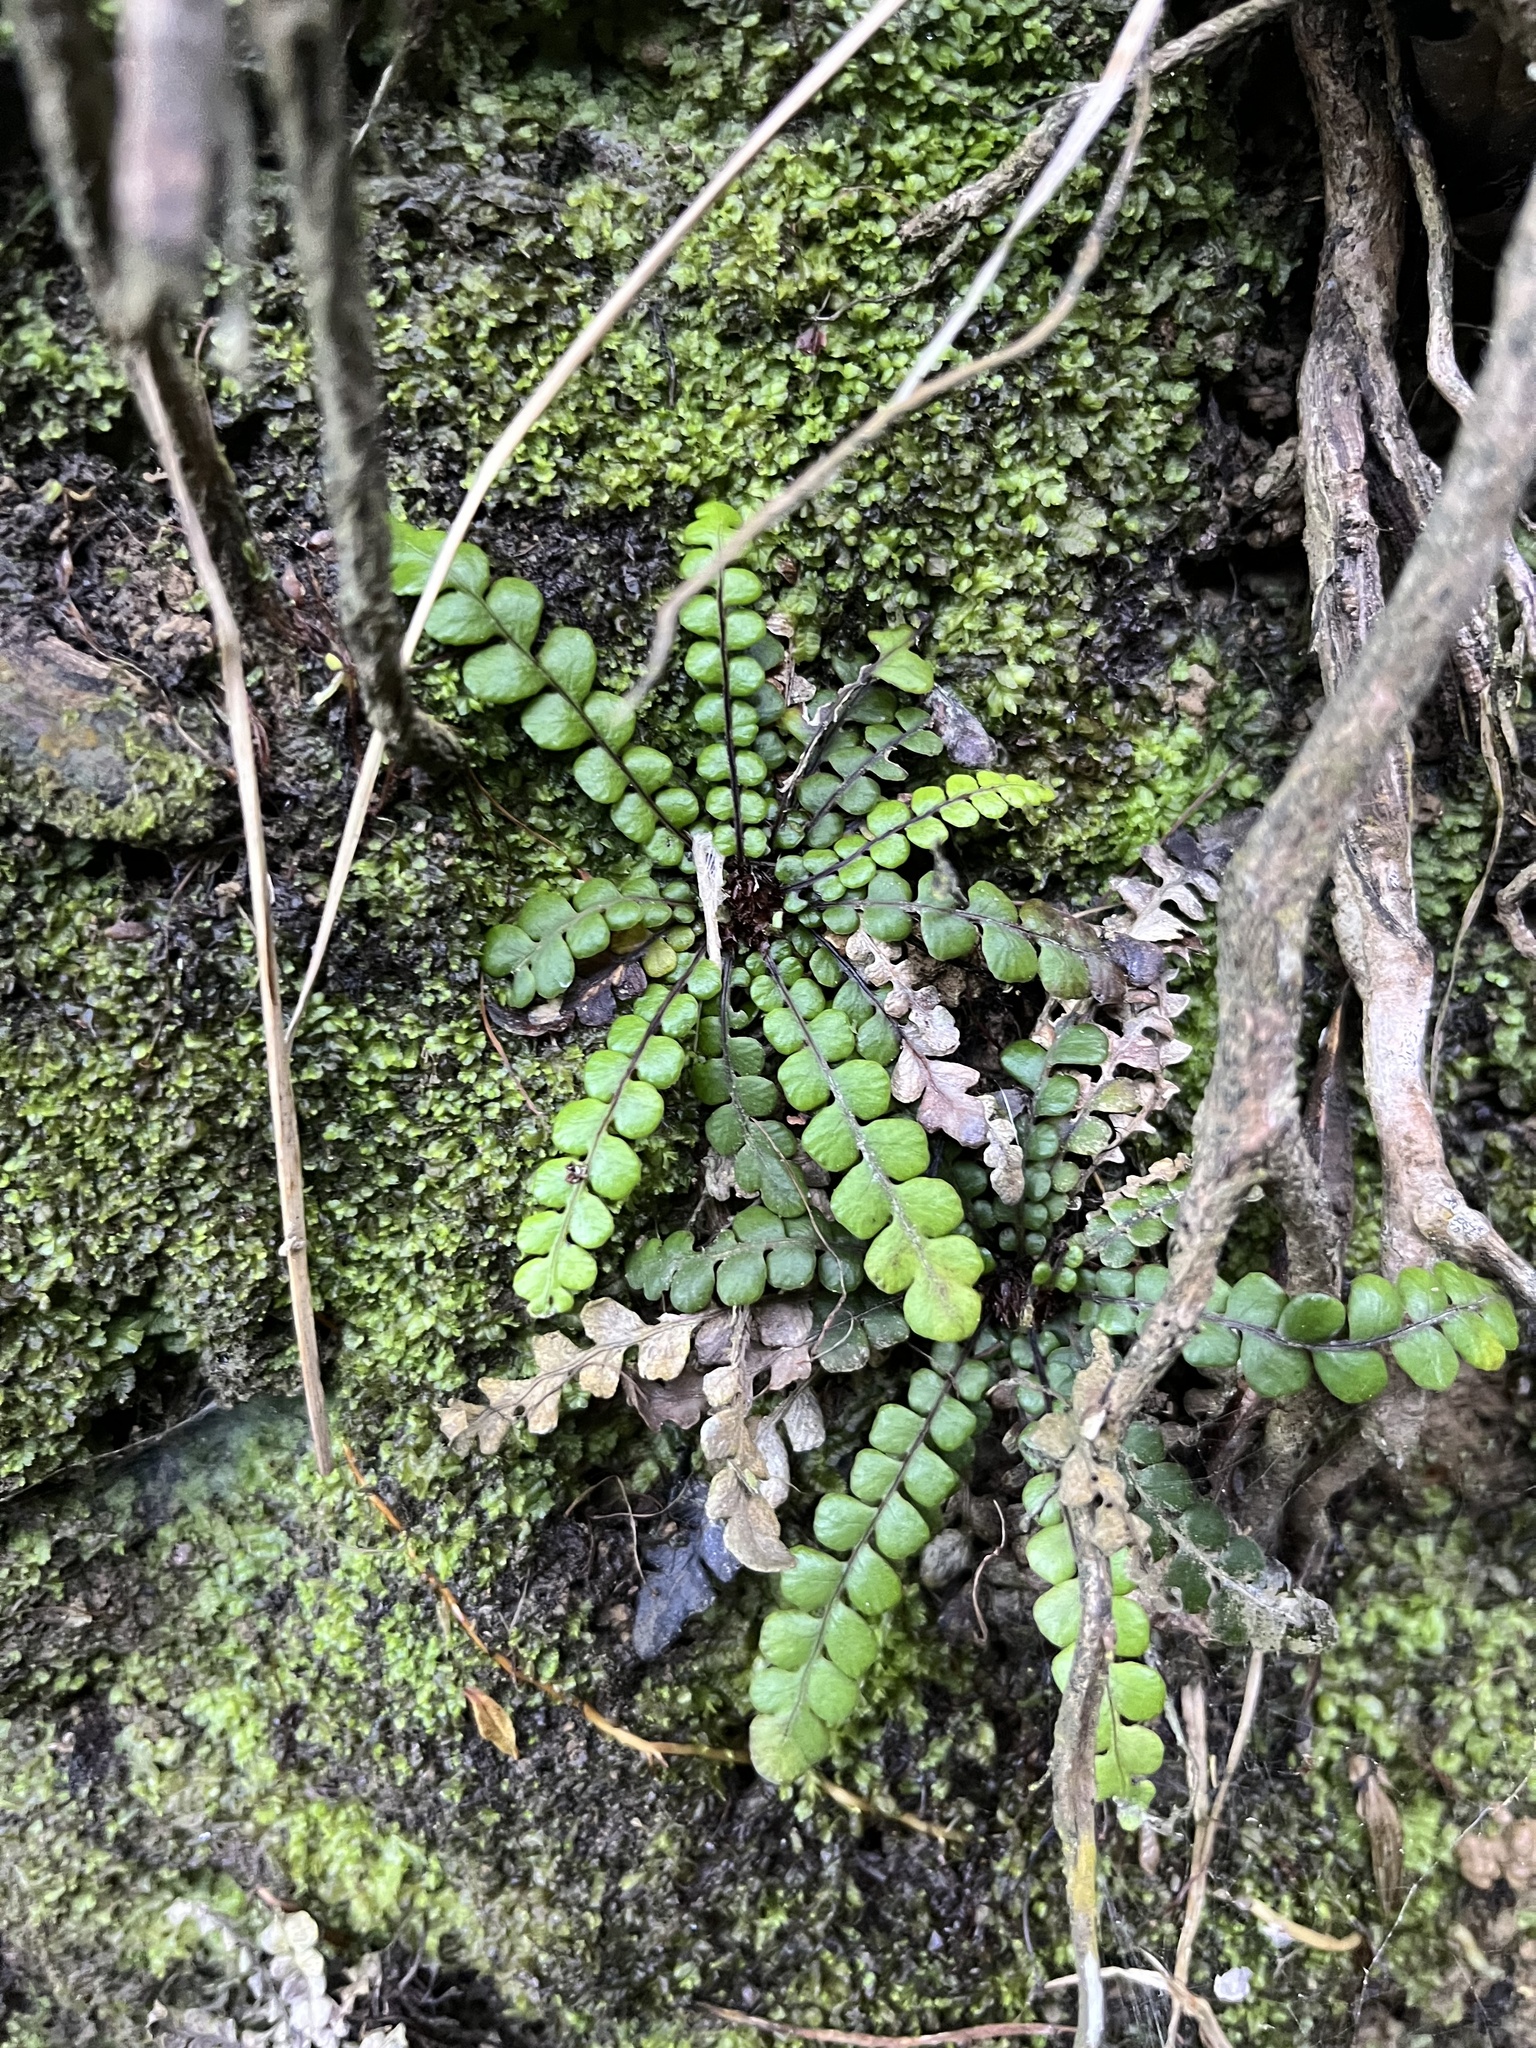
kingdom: Plantae
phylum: Tracheophyta
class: Polypodiopsida
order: Polypodiales
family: Blechnaceae
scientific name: Blechnaceae
